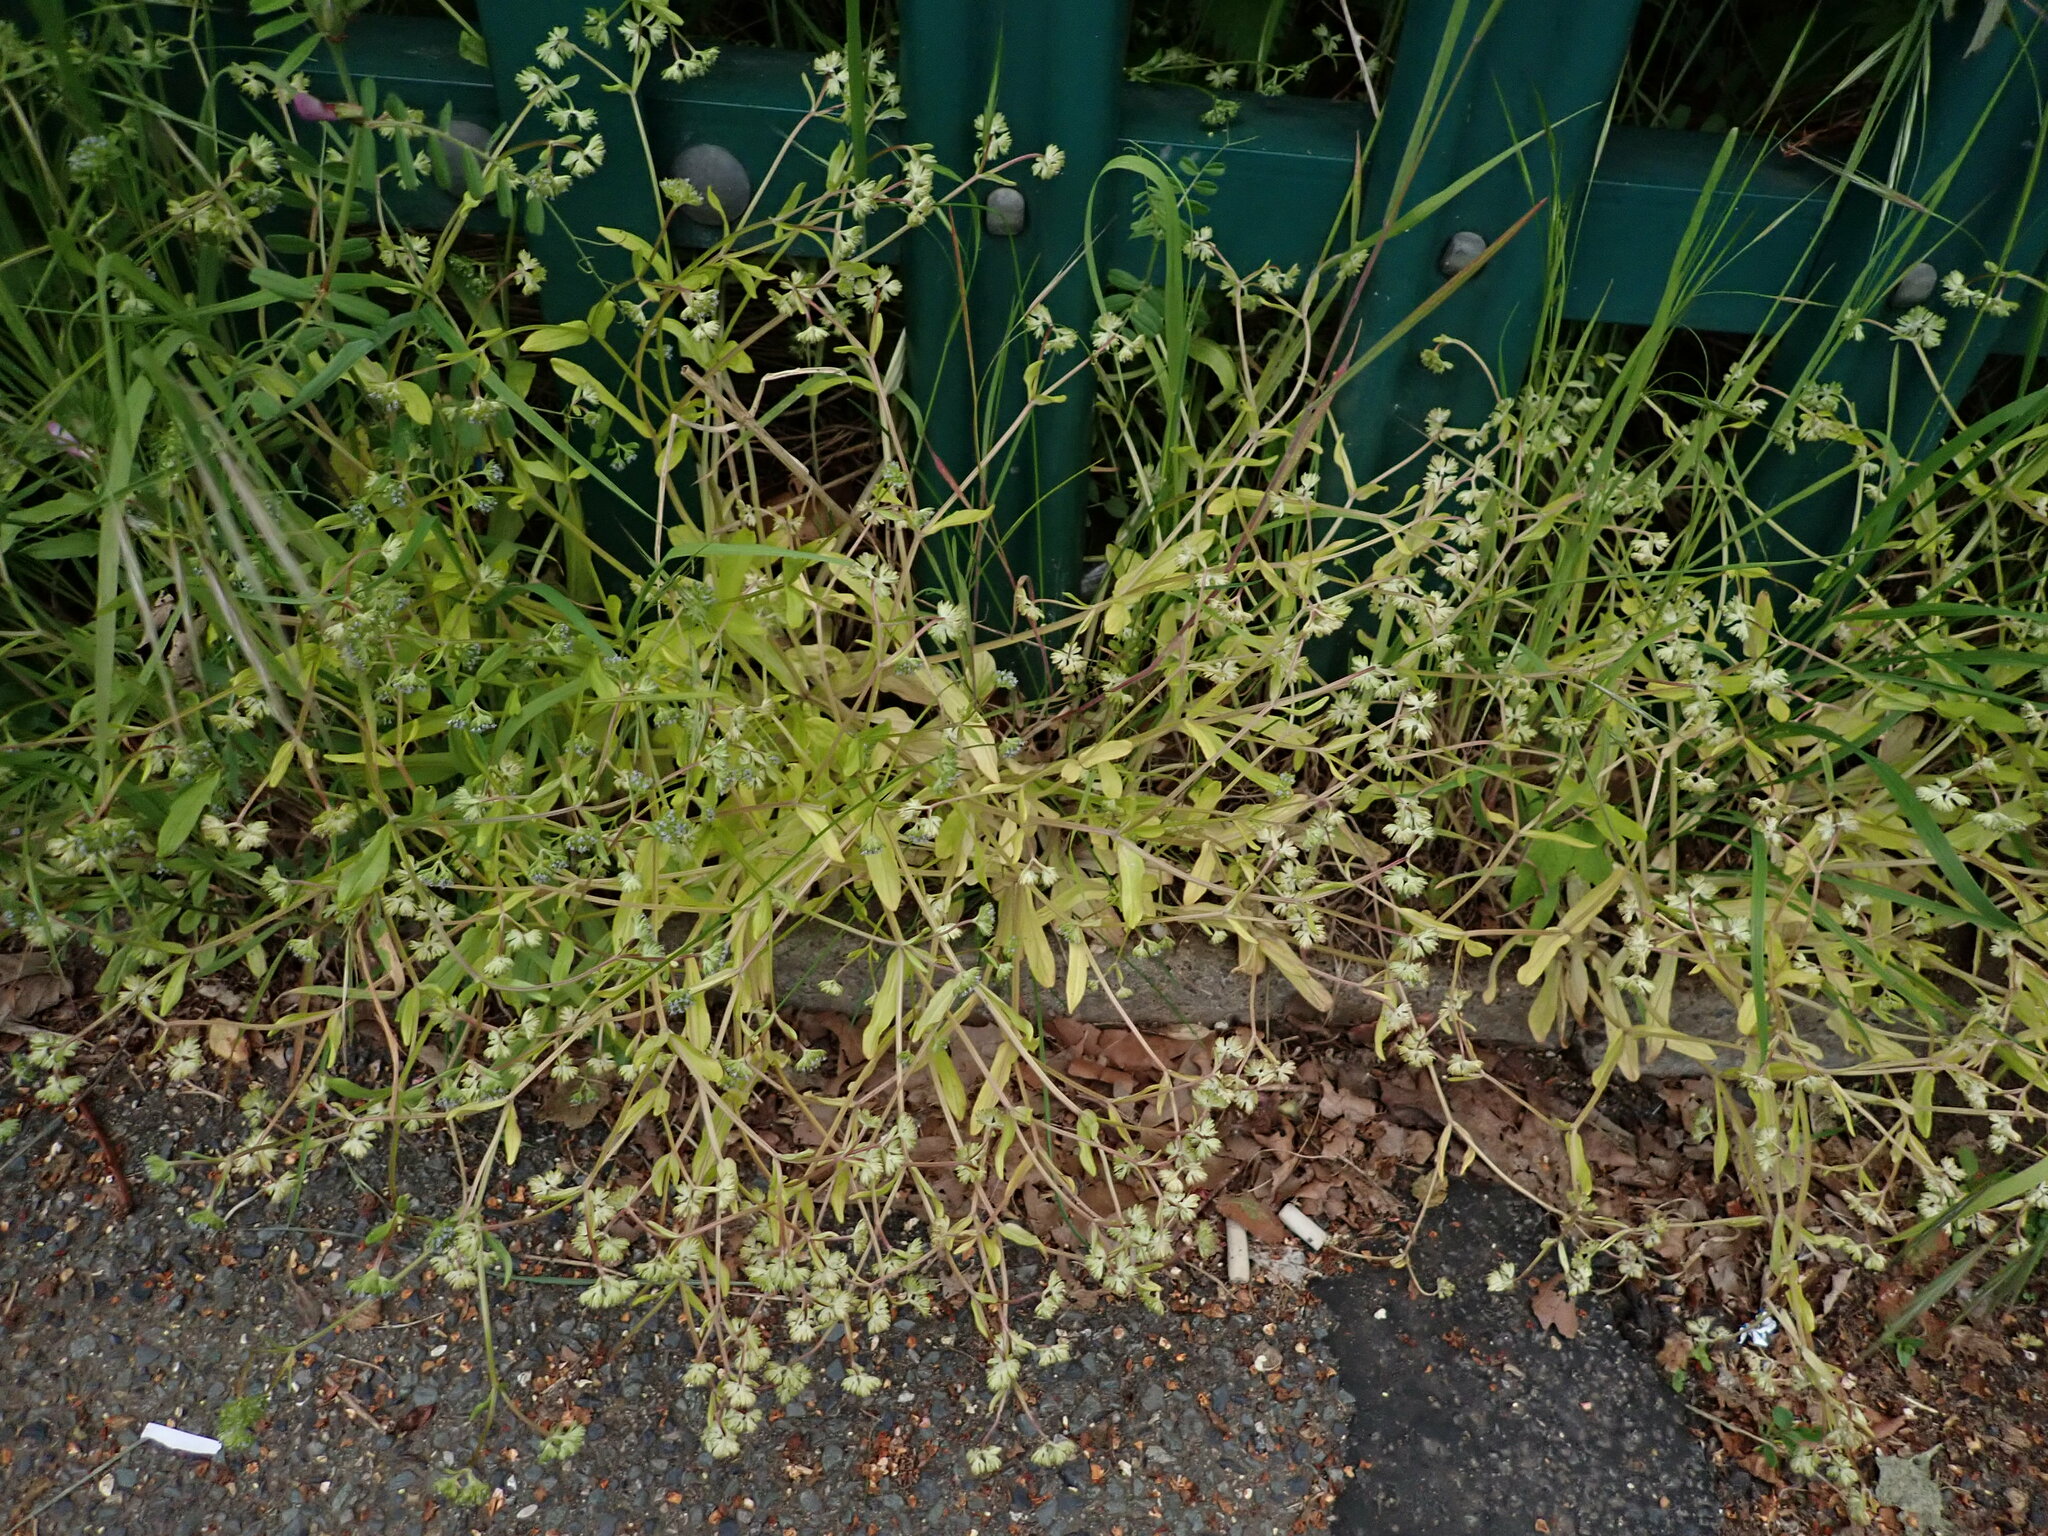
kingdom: Plantae
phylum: Tracheophyta
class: Magnoliopsida
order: Dipsacales
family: Caprifoliaceae
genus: Valerianella
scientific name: Valerianella carinata
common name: Keeled-fruited cornsalad
